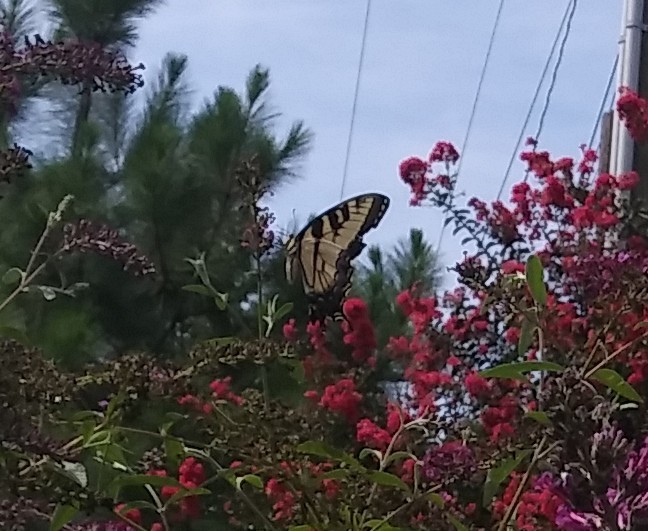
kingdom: Animalia
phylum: Arthropoda
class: Insecta
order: Lepidoptera
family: Papilionidae
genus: Papilio
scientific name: Papilio glaucus
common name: Tiger swallowtail
